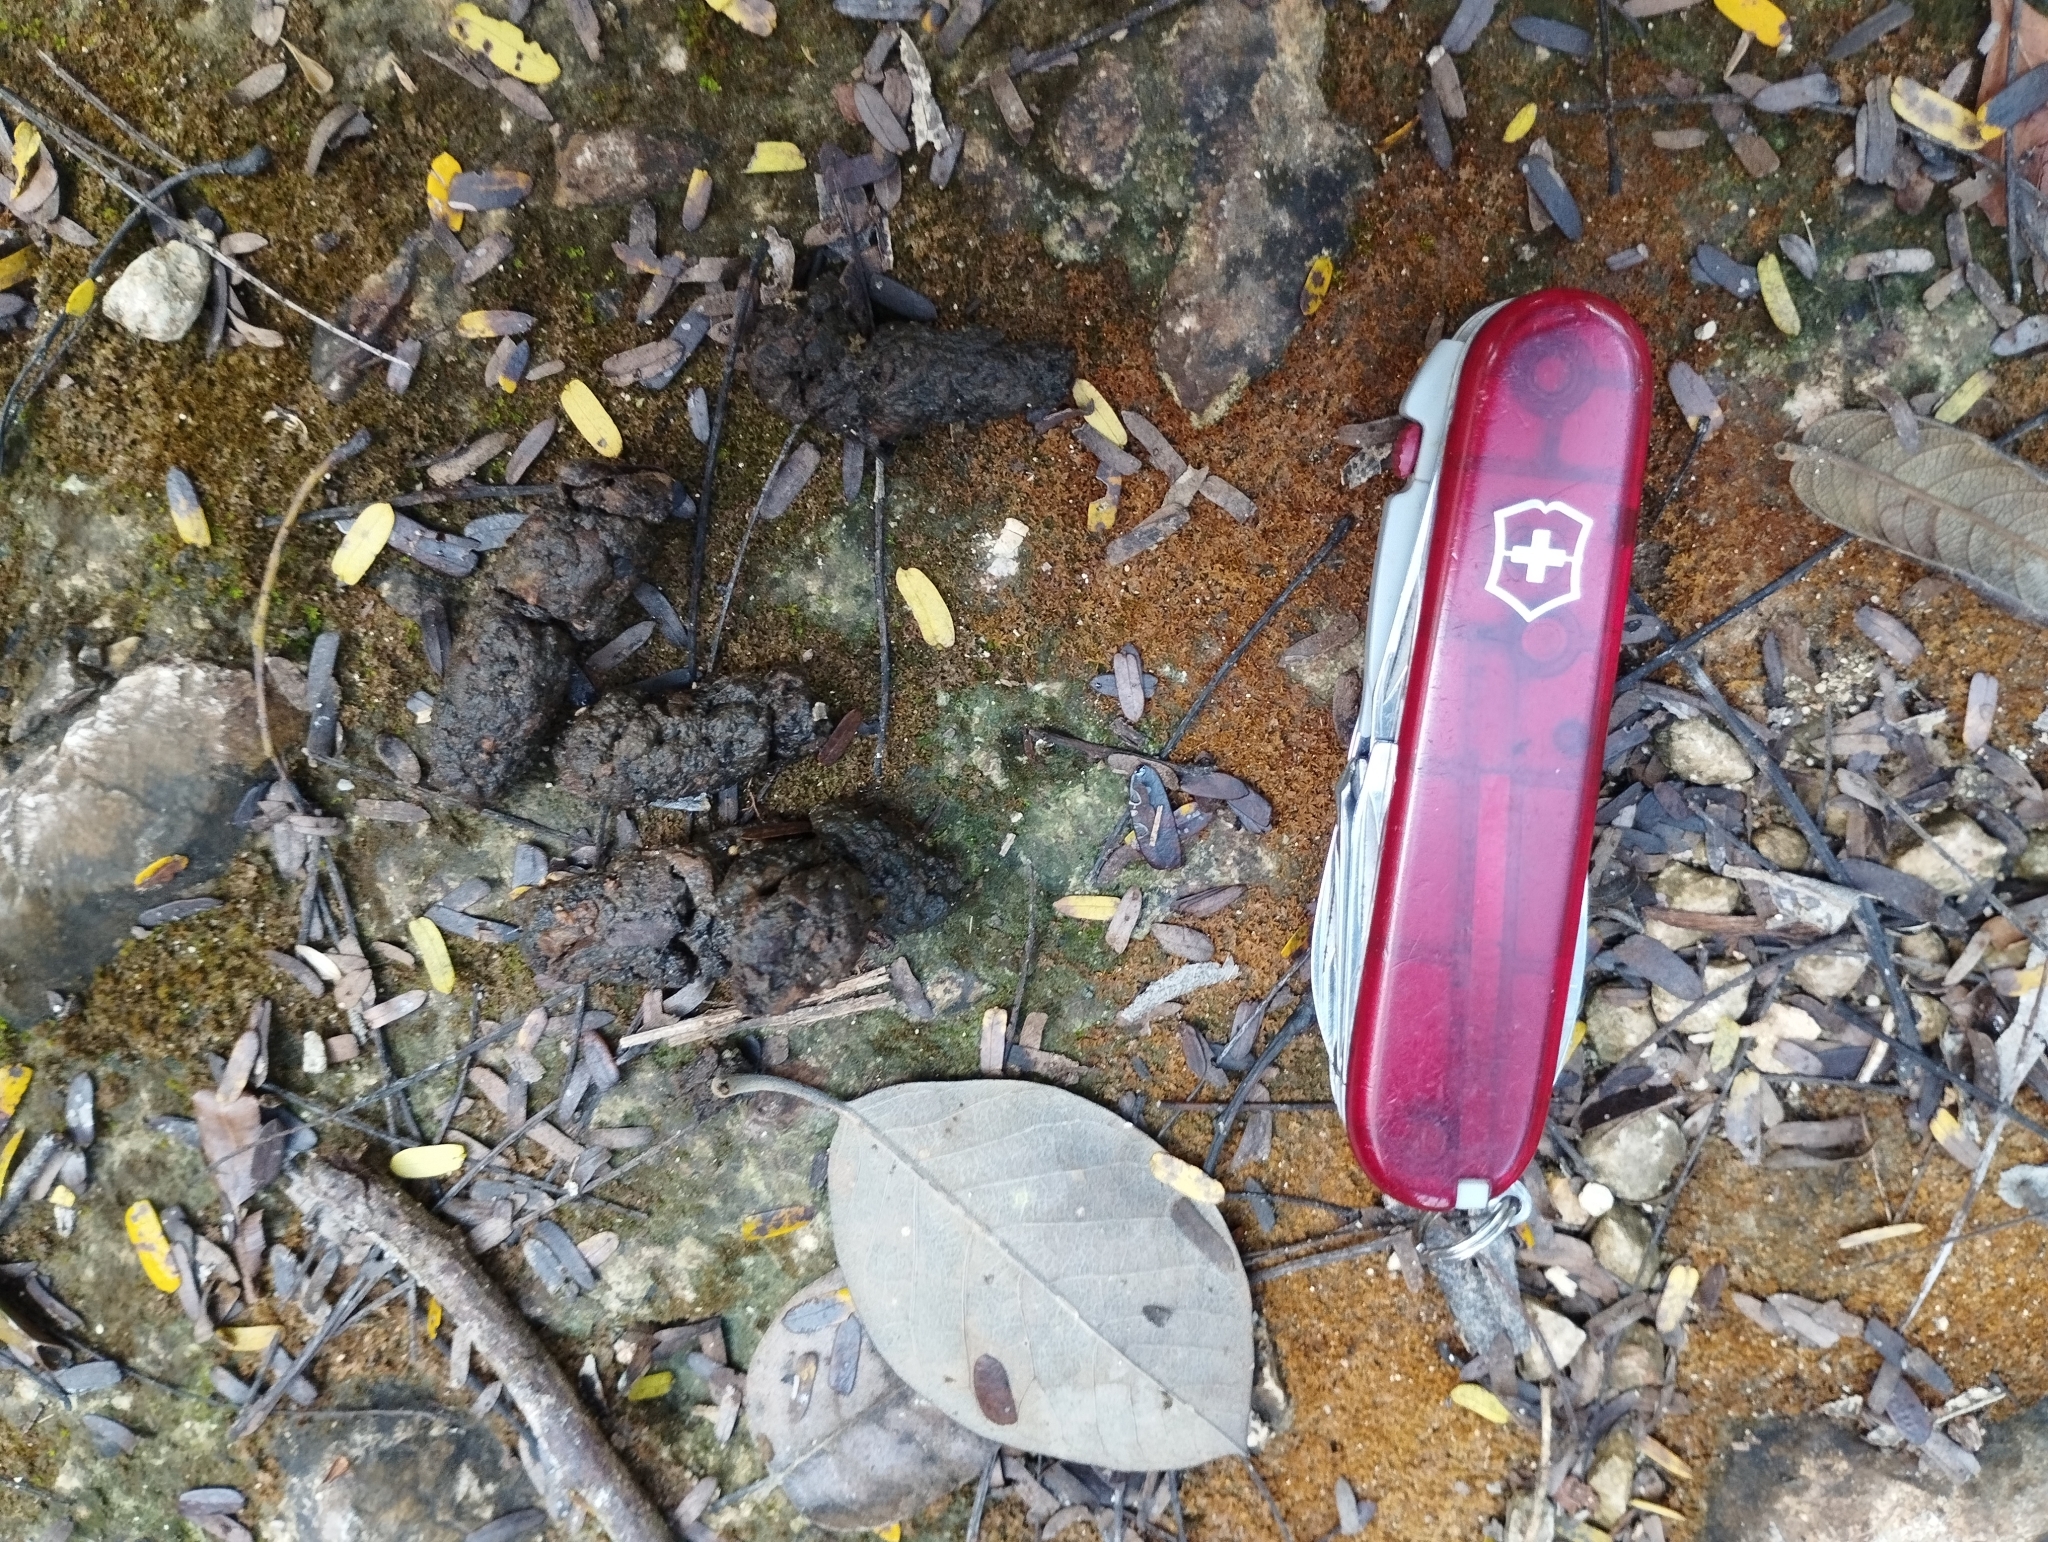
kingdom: Animalia
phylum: Chordata
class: Mammalia
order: Carnivora
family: Canidae
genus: Urocyon
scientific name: Urocyon cinereoargenteus
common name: Gray fox
